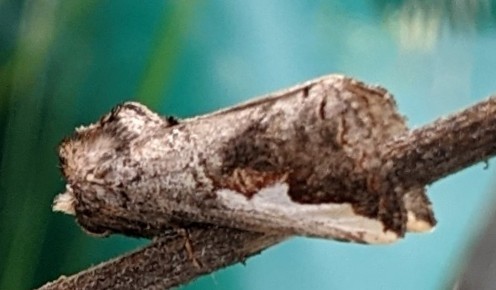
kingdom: Animalia
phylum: Arthropoda
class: Insecta
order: Lepidoptera
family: Notodontidae
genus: Symmerista
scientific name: Symmerista albifrons
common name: White-headed prominent
